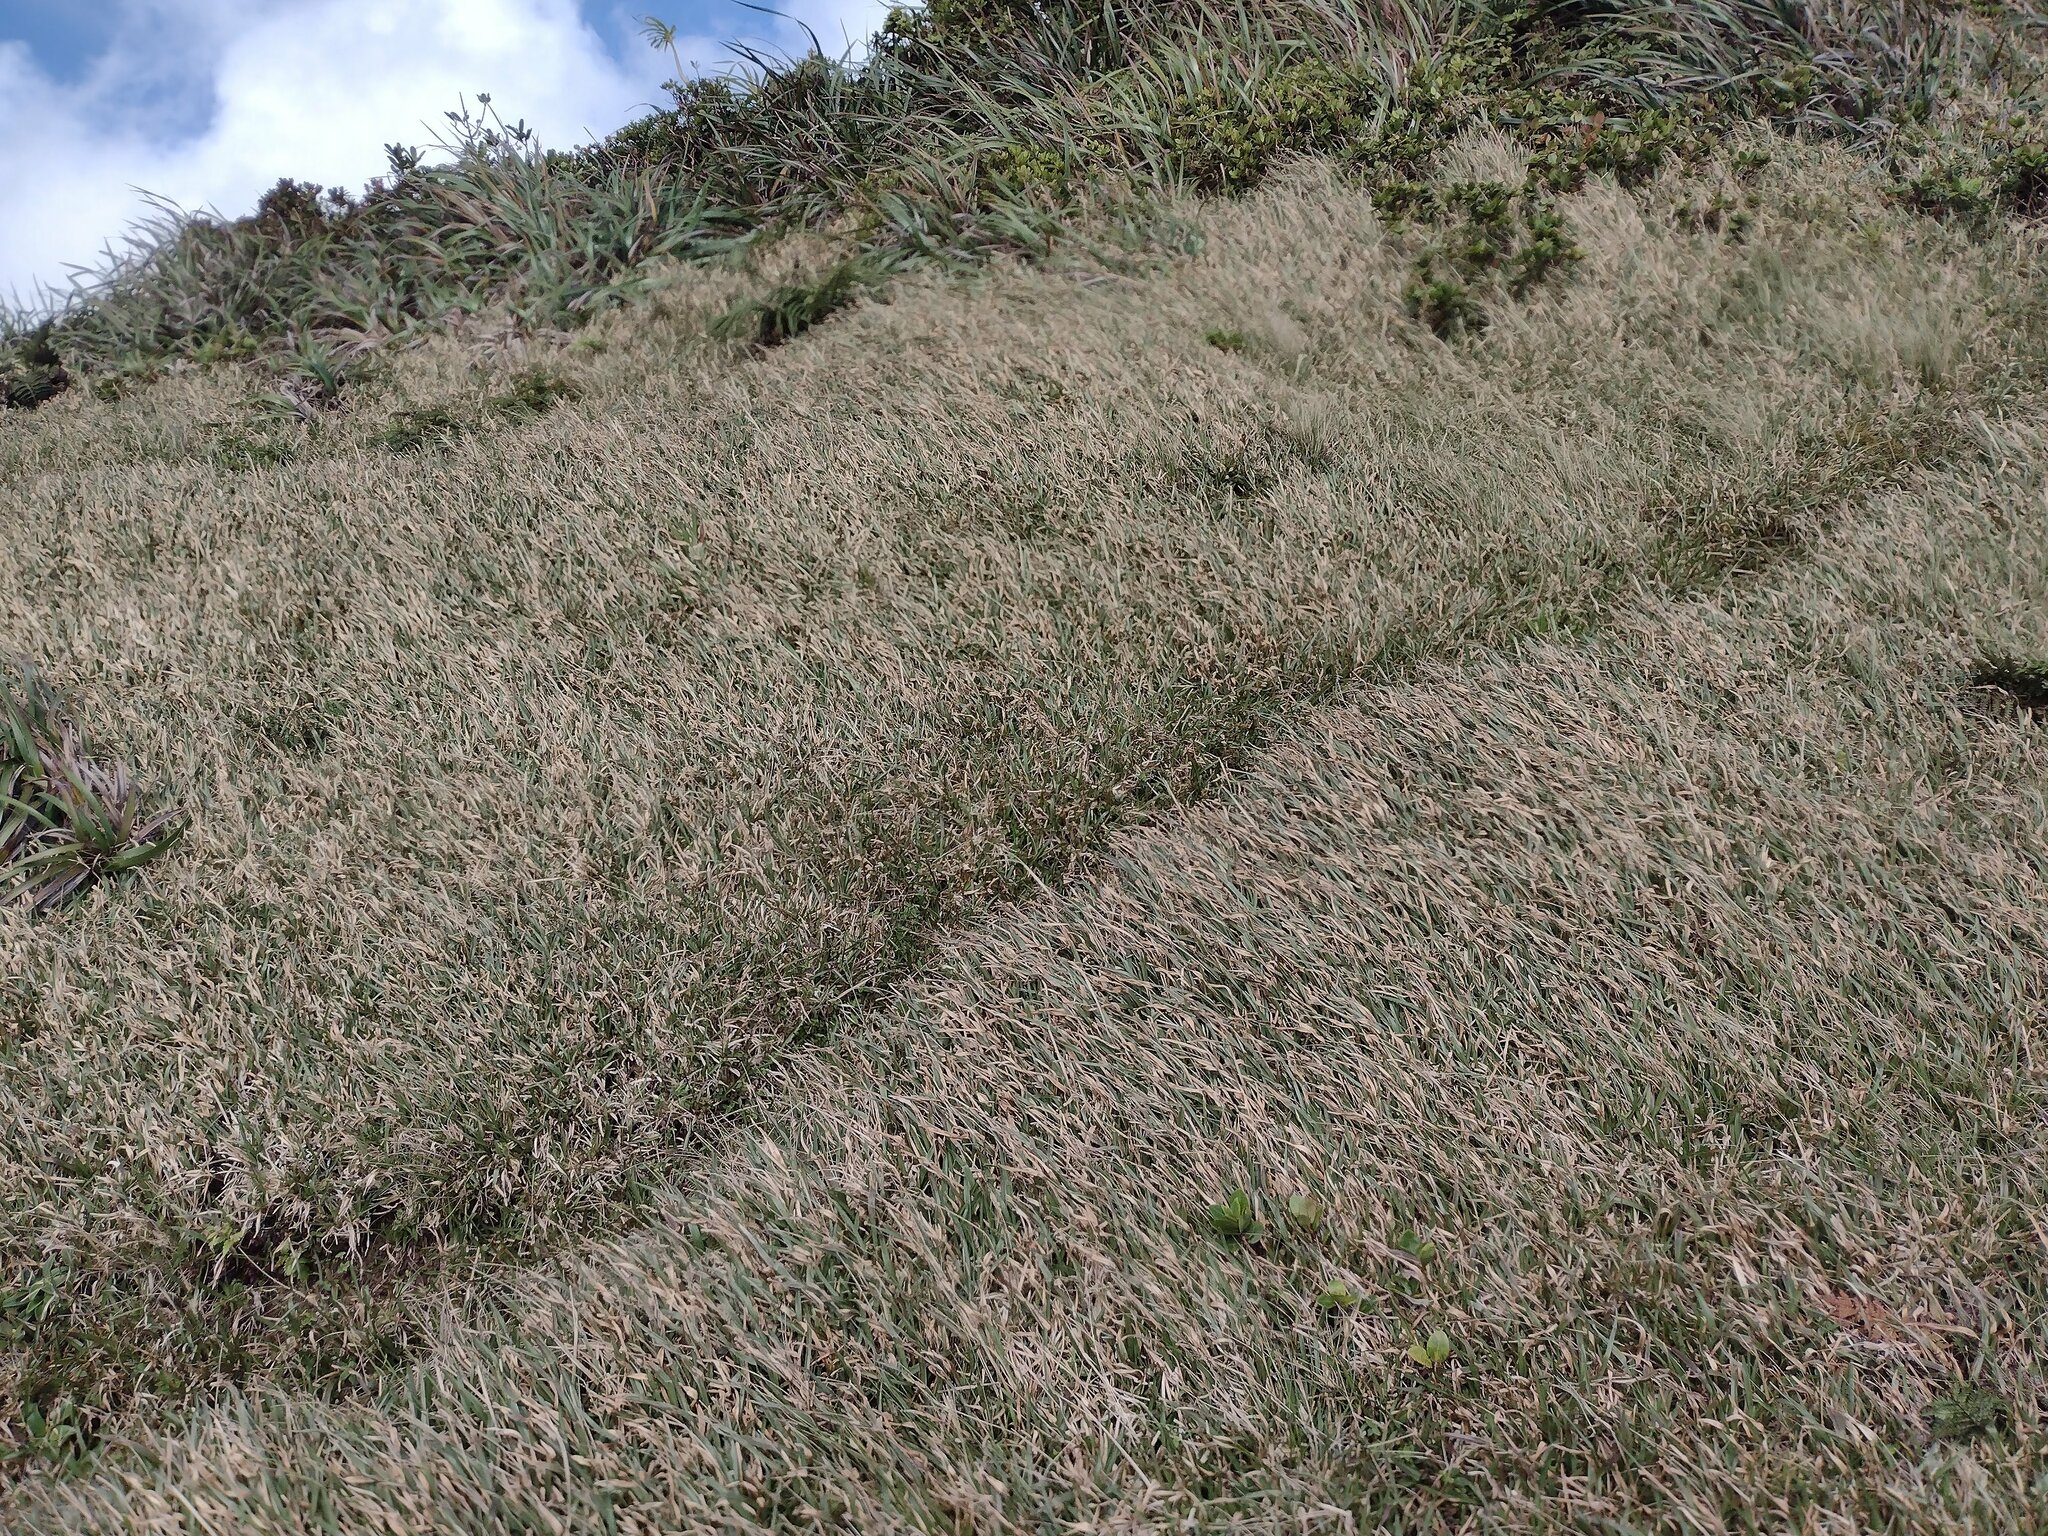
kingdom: Plantae
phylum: Tracheophyta
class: Liliopsida
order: Poales
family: Poaceae
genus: Axonopus
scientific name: Axonopus fissifolius
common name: Common carpetgrass
